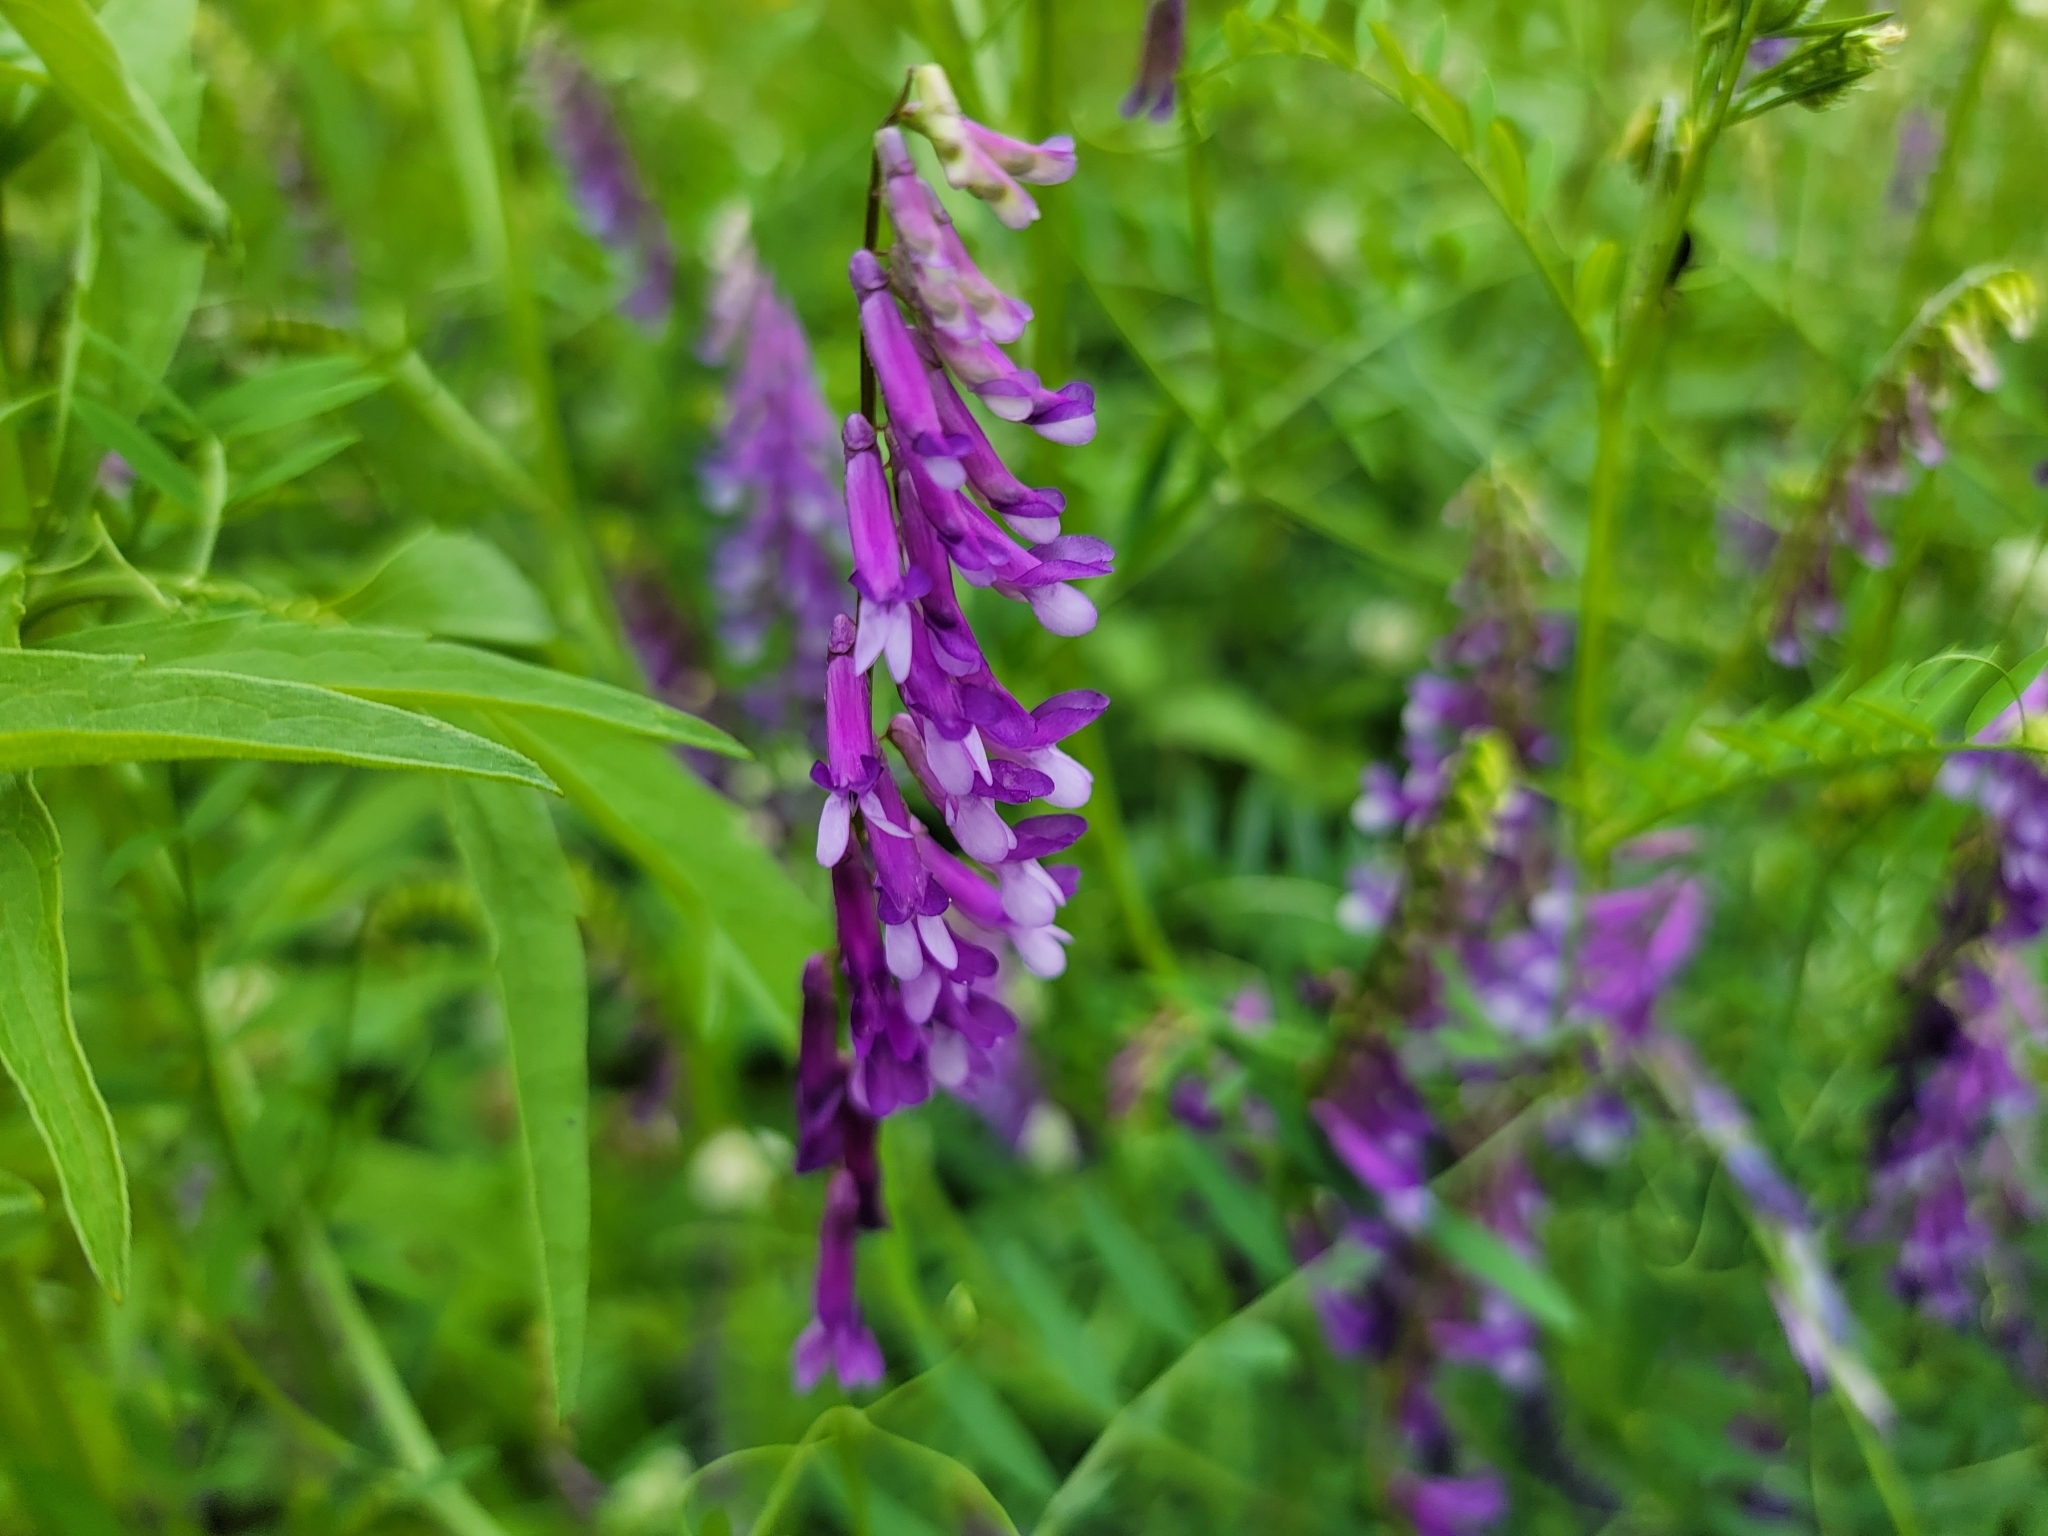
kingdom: Plantae
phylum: Tracheophyta
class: Magnoliopsida
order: Fabales
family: Fabaceae
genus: Vicia
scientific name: Vicia villosa
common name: Fodder vetch
